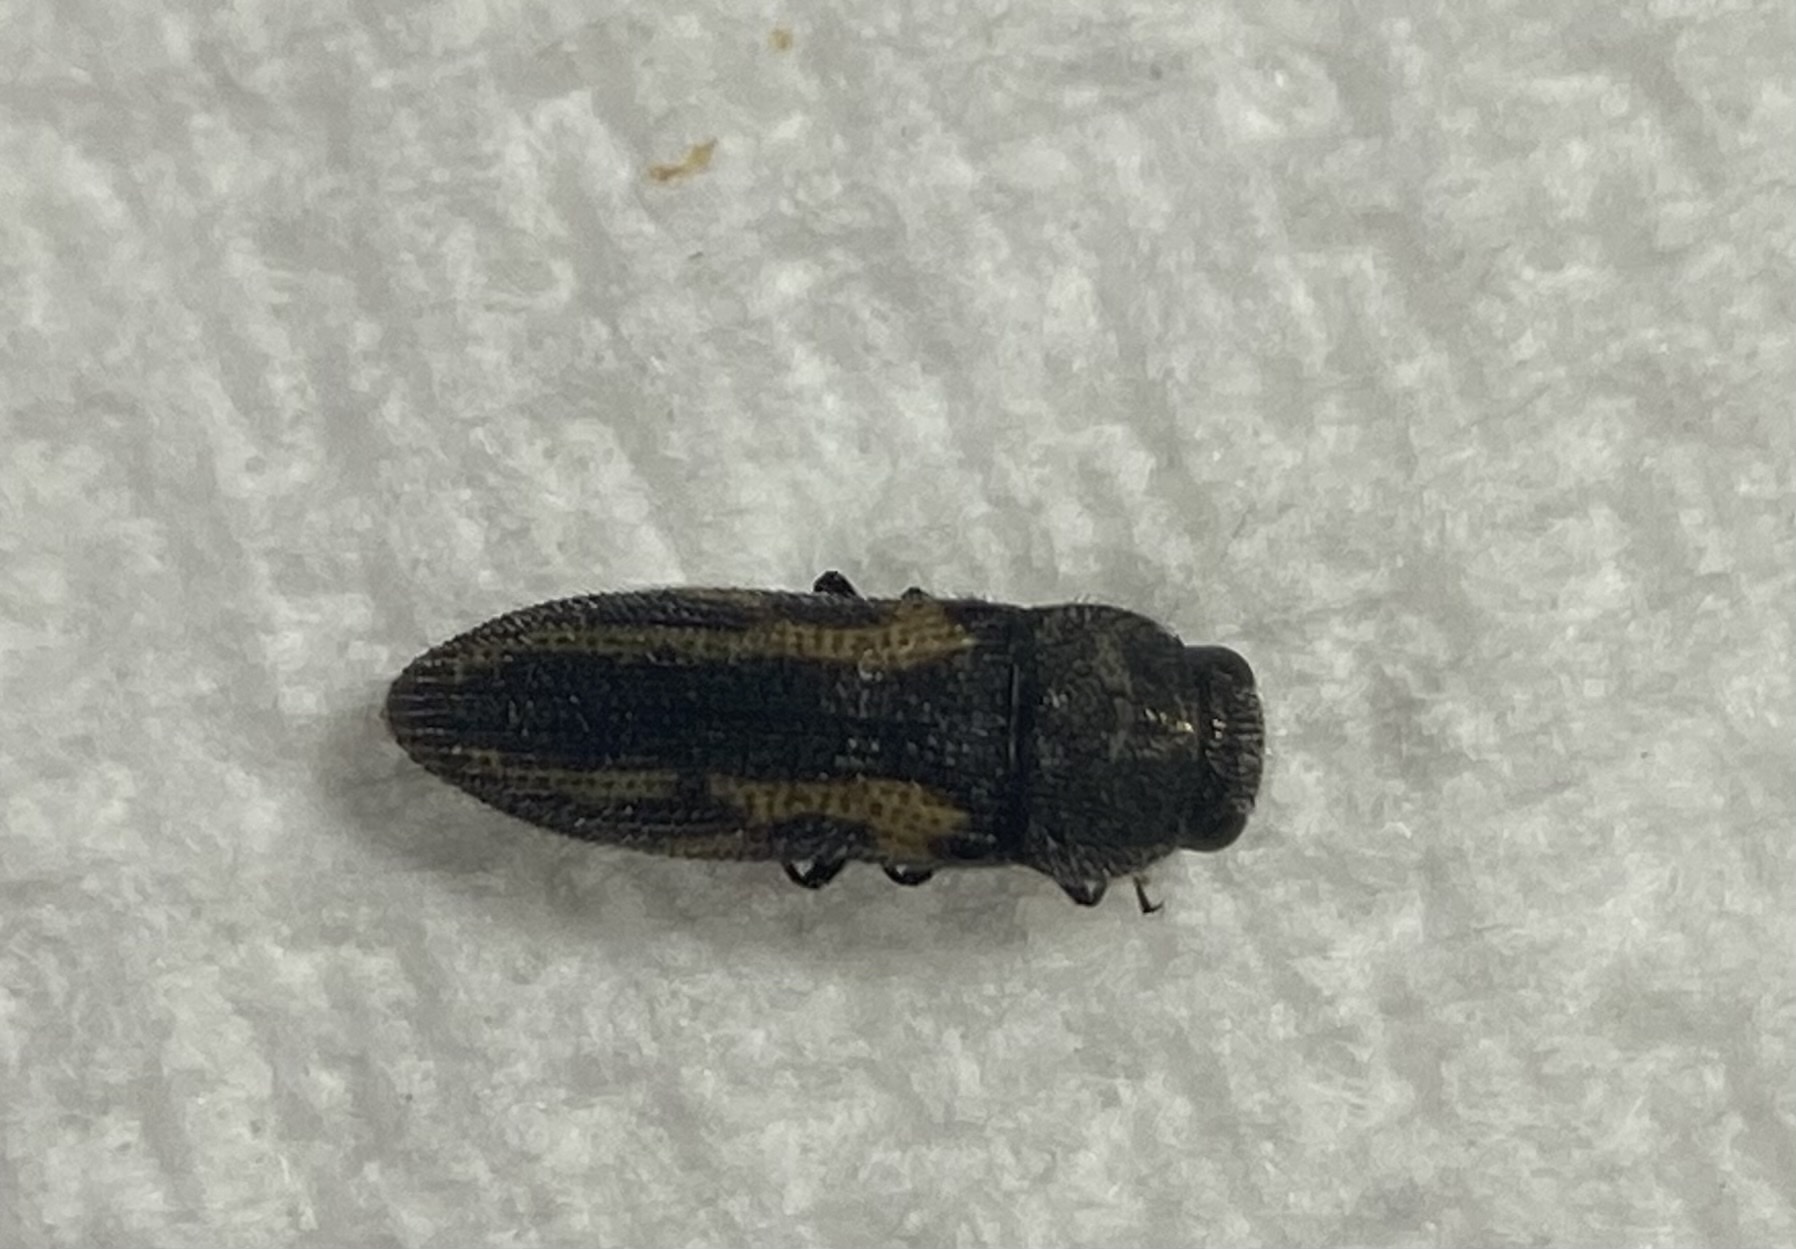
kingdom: Animalia
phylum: Arthropoda
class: Insecta
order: Coleoptera
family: Buprestidae
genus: Acmaeodera
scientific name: Acmaeodera ligulata
